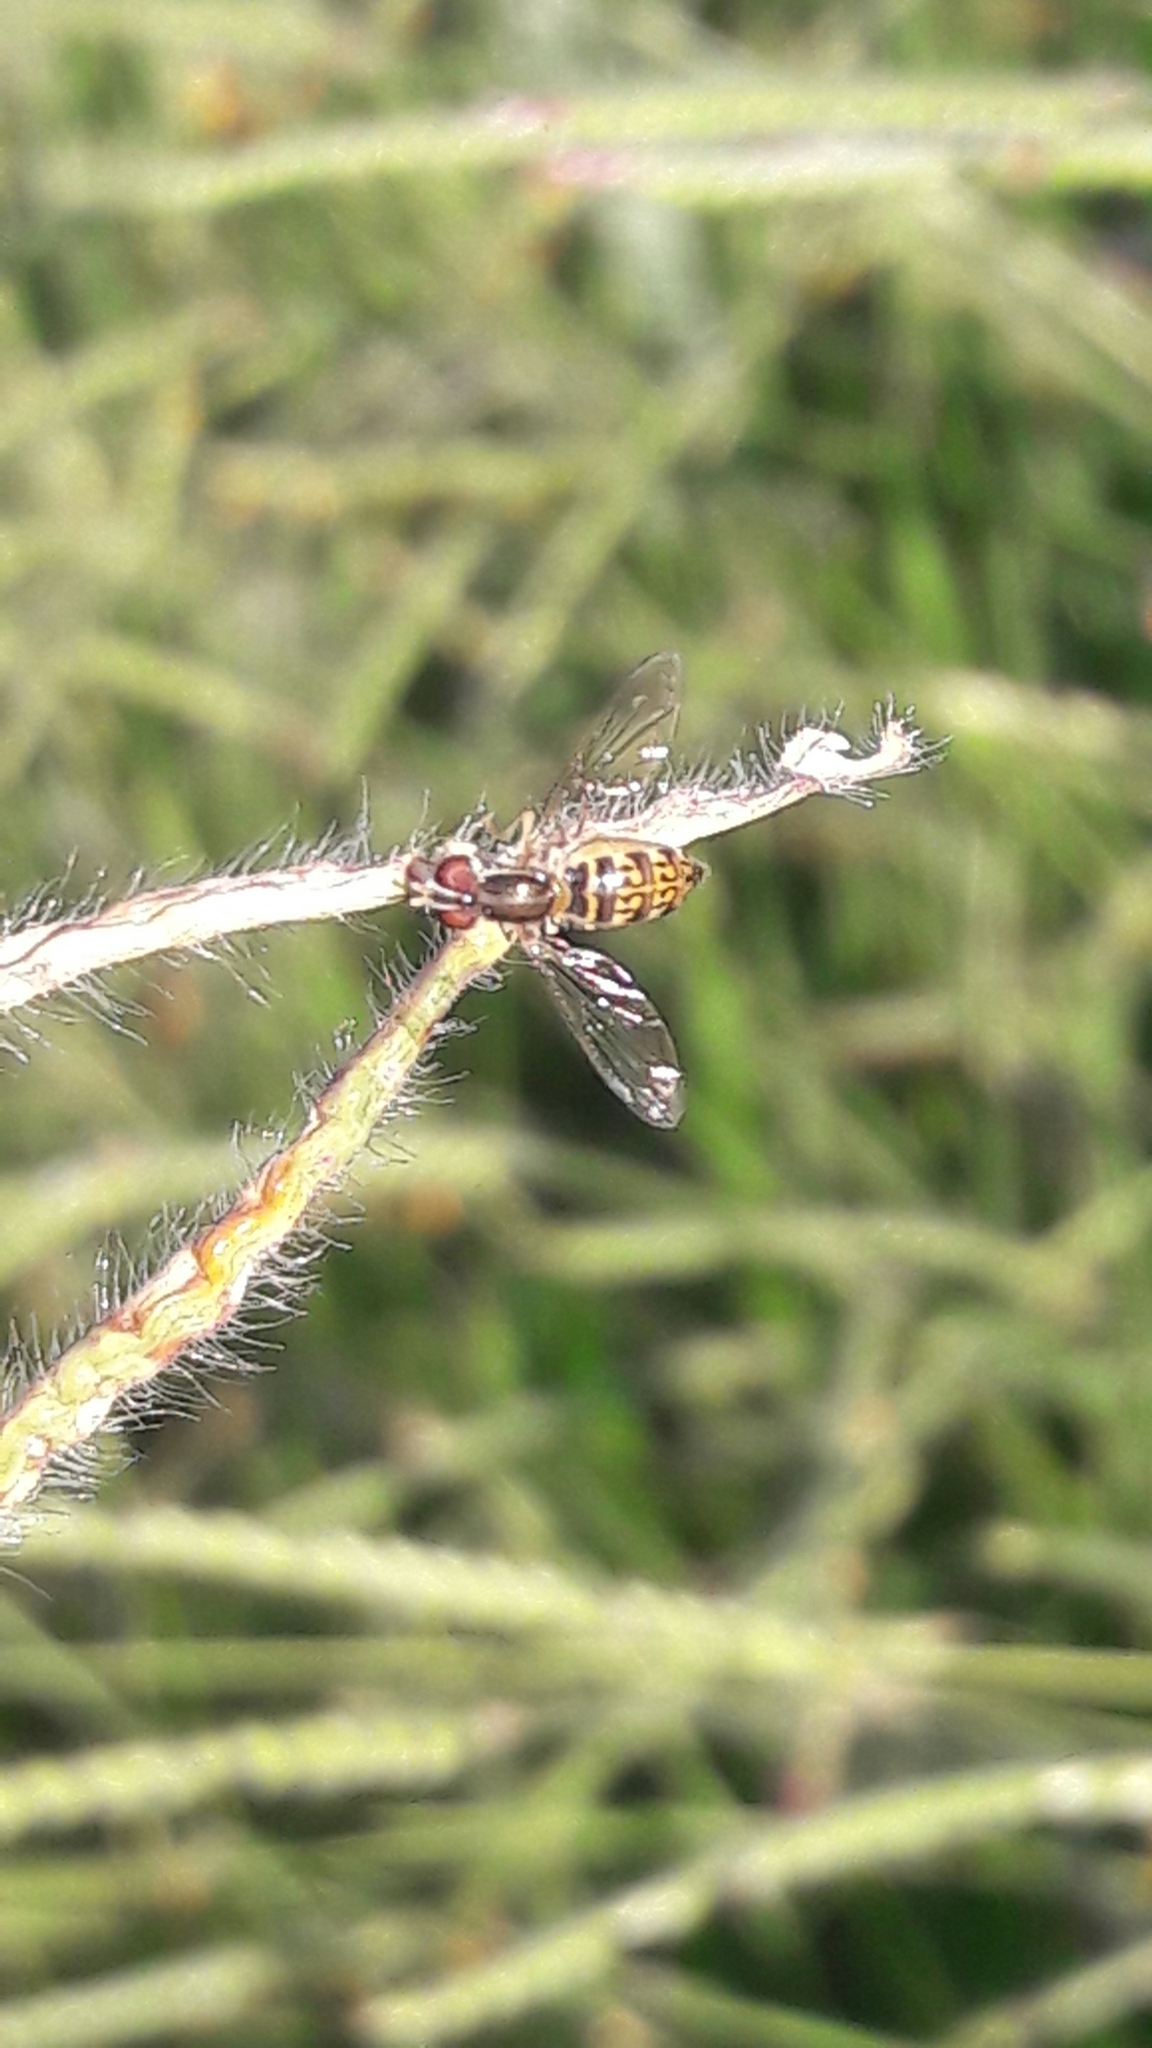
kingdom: Animalia
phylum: Arthropoda
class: Insecta
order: Diptera
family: Syrphidae
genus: Toxomerus
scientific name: Toxomerus
